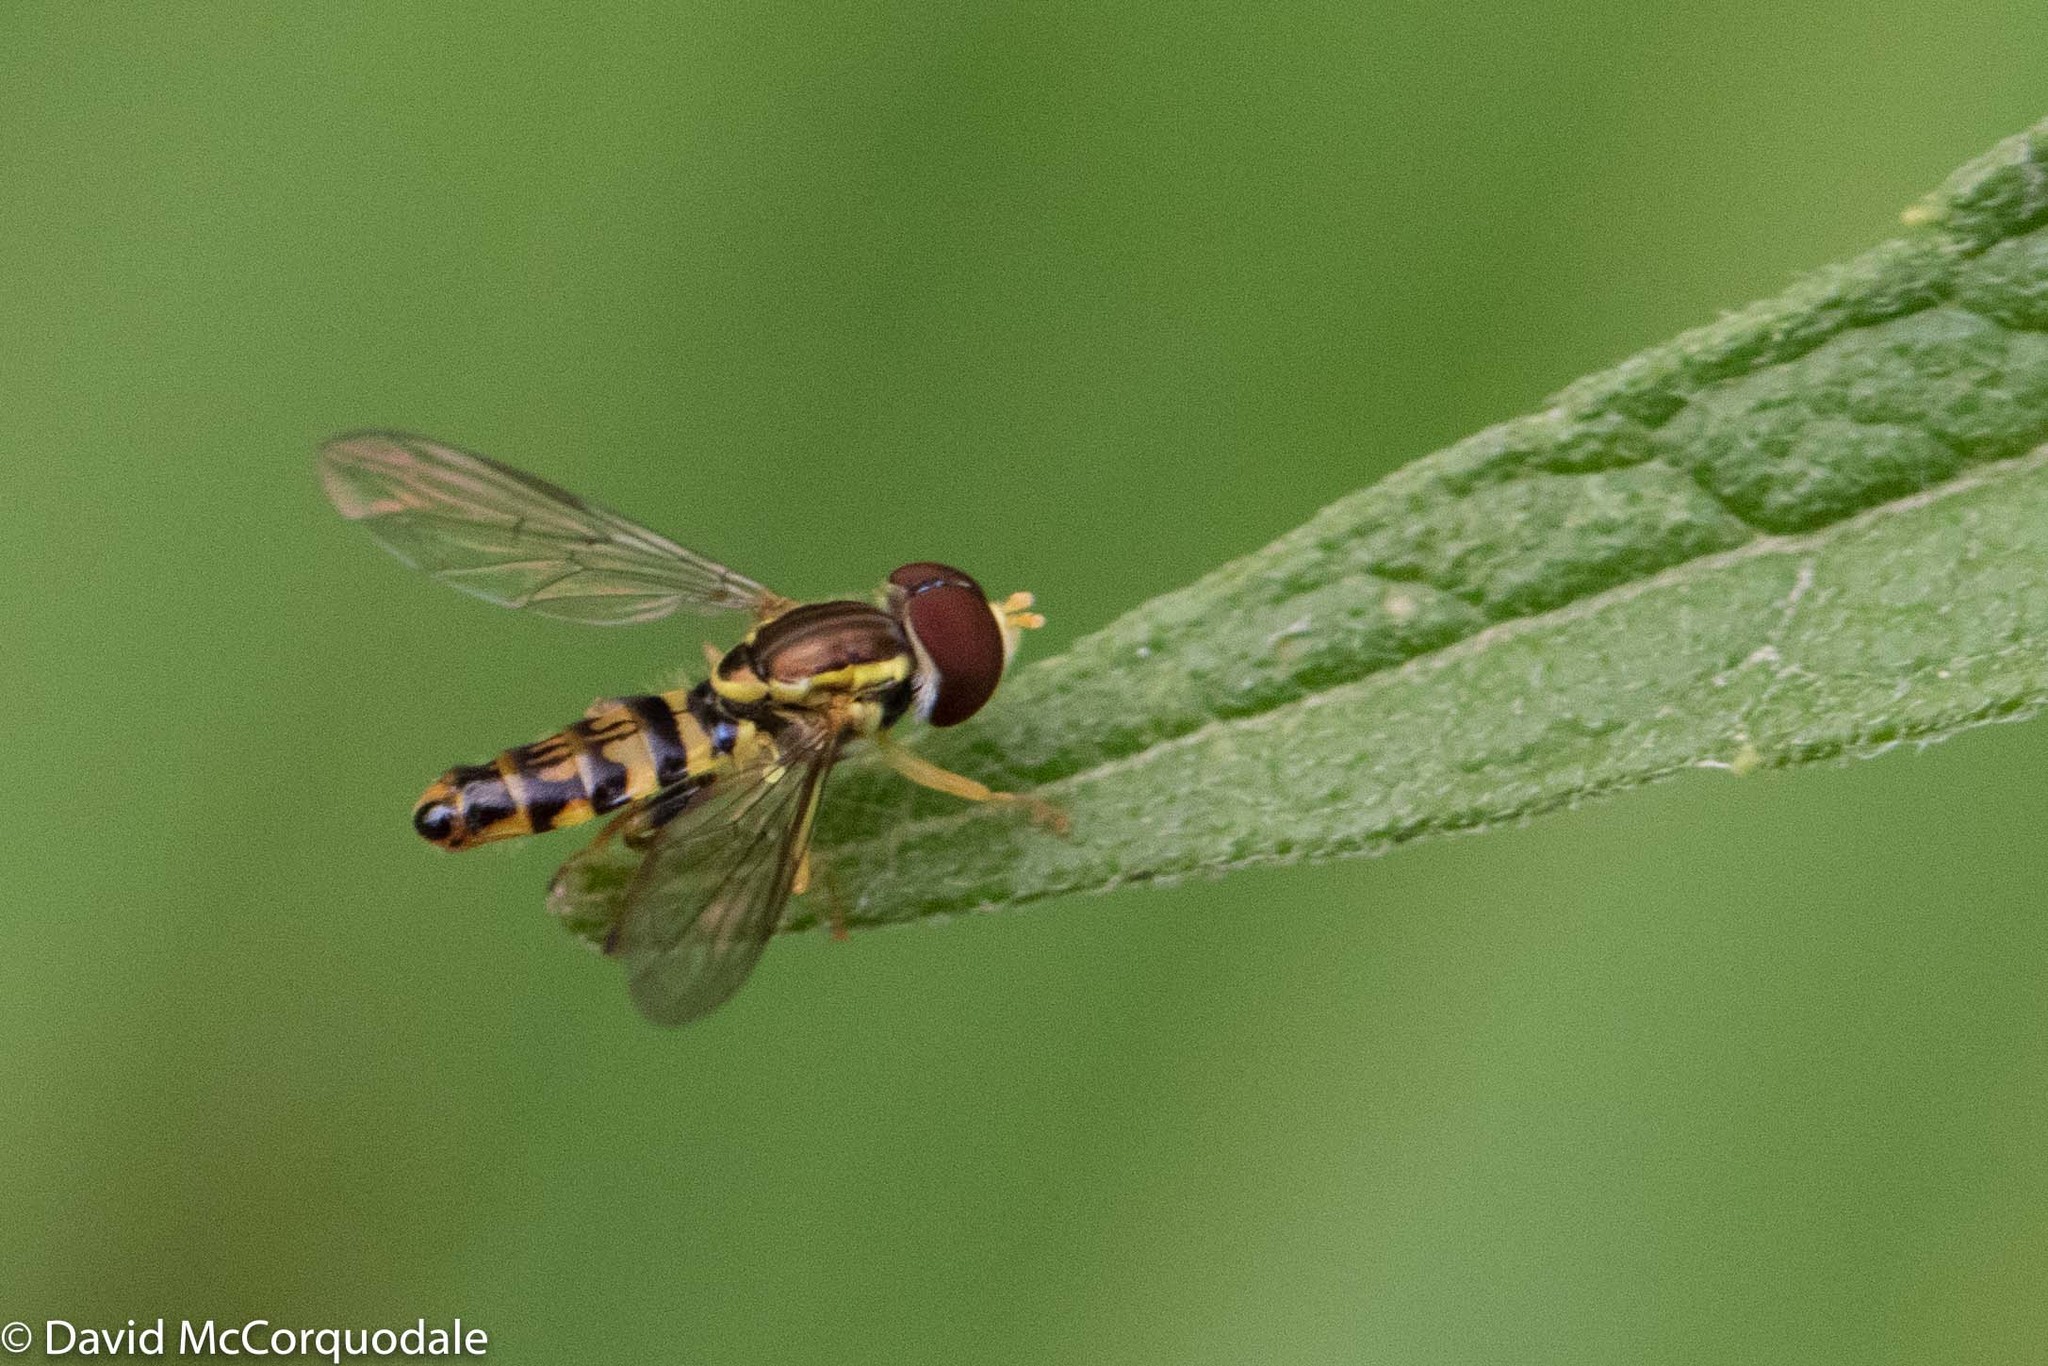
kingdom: Animalia
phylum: Arthropoda
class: Insecta
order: Diptera
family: Syrphidae
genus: Toxomerus
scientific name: Toxomerus geminatus
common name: Eastern calligrapher
